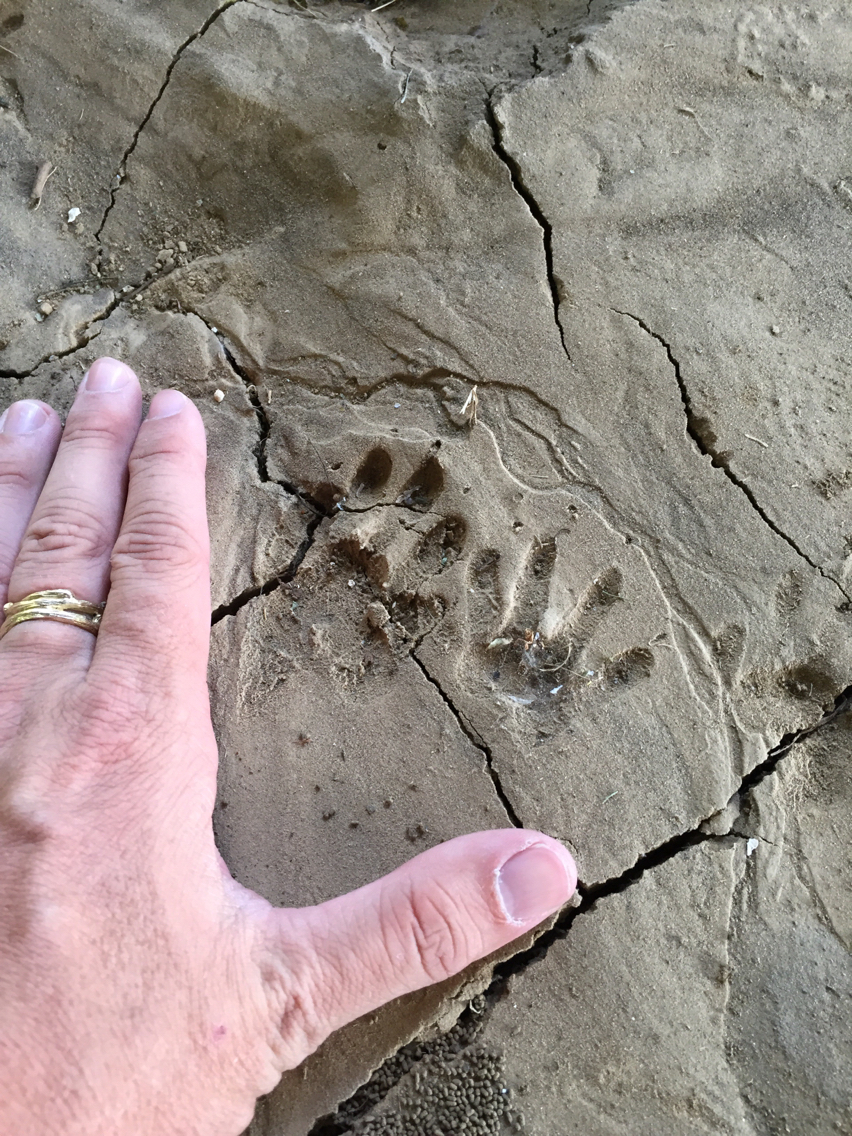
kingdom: Animalia
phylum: Chordata
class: Mammalia
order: Carnivora
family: Procyonidae
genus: Procyon
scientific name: Procyon lotor
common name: Raccoon
